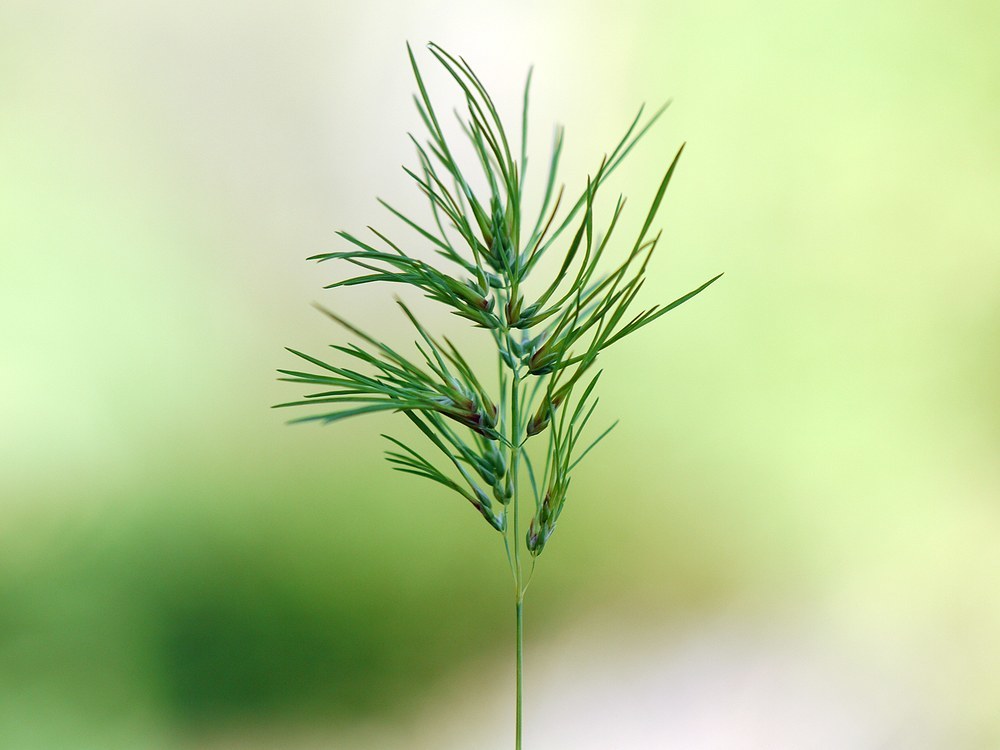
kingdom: Plantae
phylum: Tracheophyta
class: Liliopsida
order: Poales
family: Poaceae
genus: Poa
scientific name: Poa bulbosa
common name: Bulbous bluegrass
